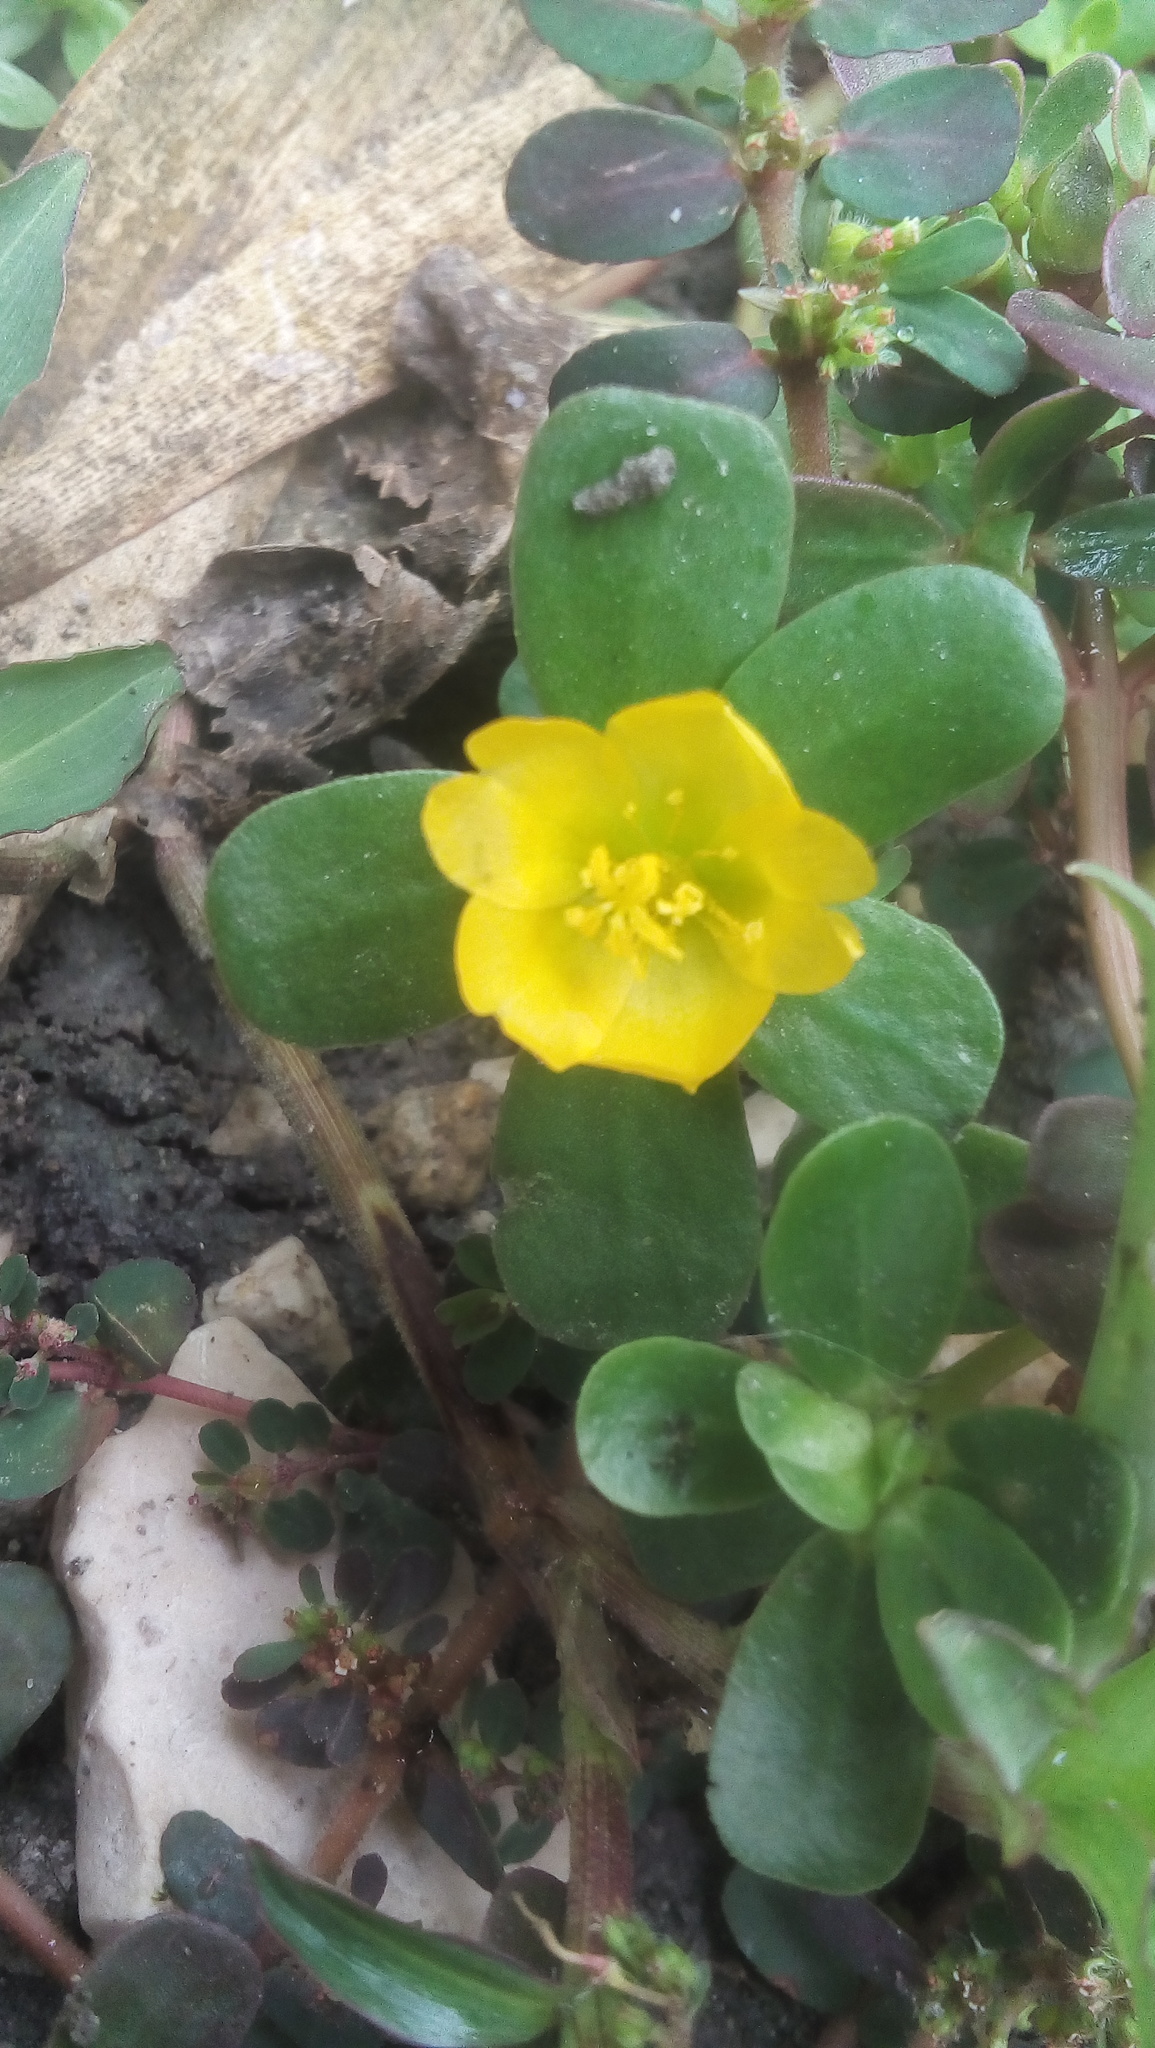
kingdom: Plantae
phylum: Tracheophyta
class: Magnoliopsida
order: Caryophyllales
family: Portulacaceae
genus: Portulaca
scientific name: Portulaca oleracea
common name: Common purslane
